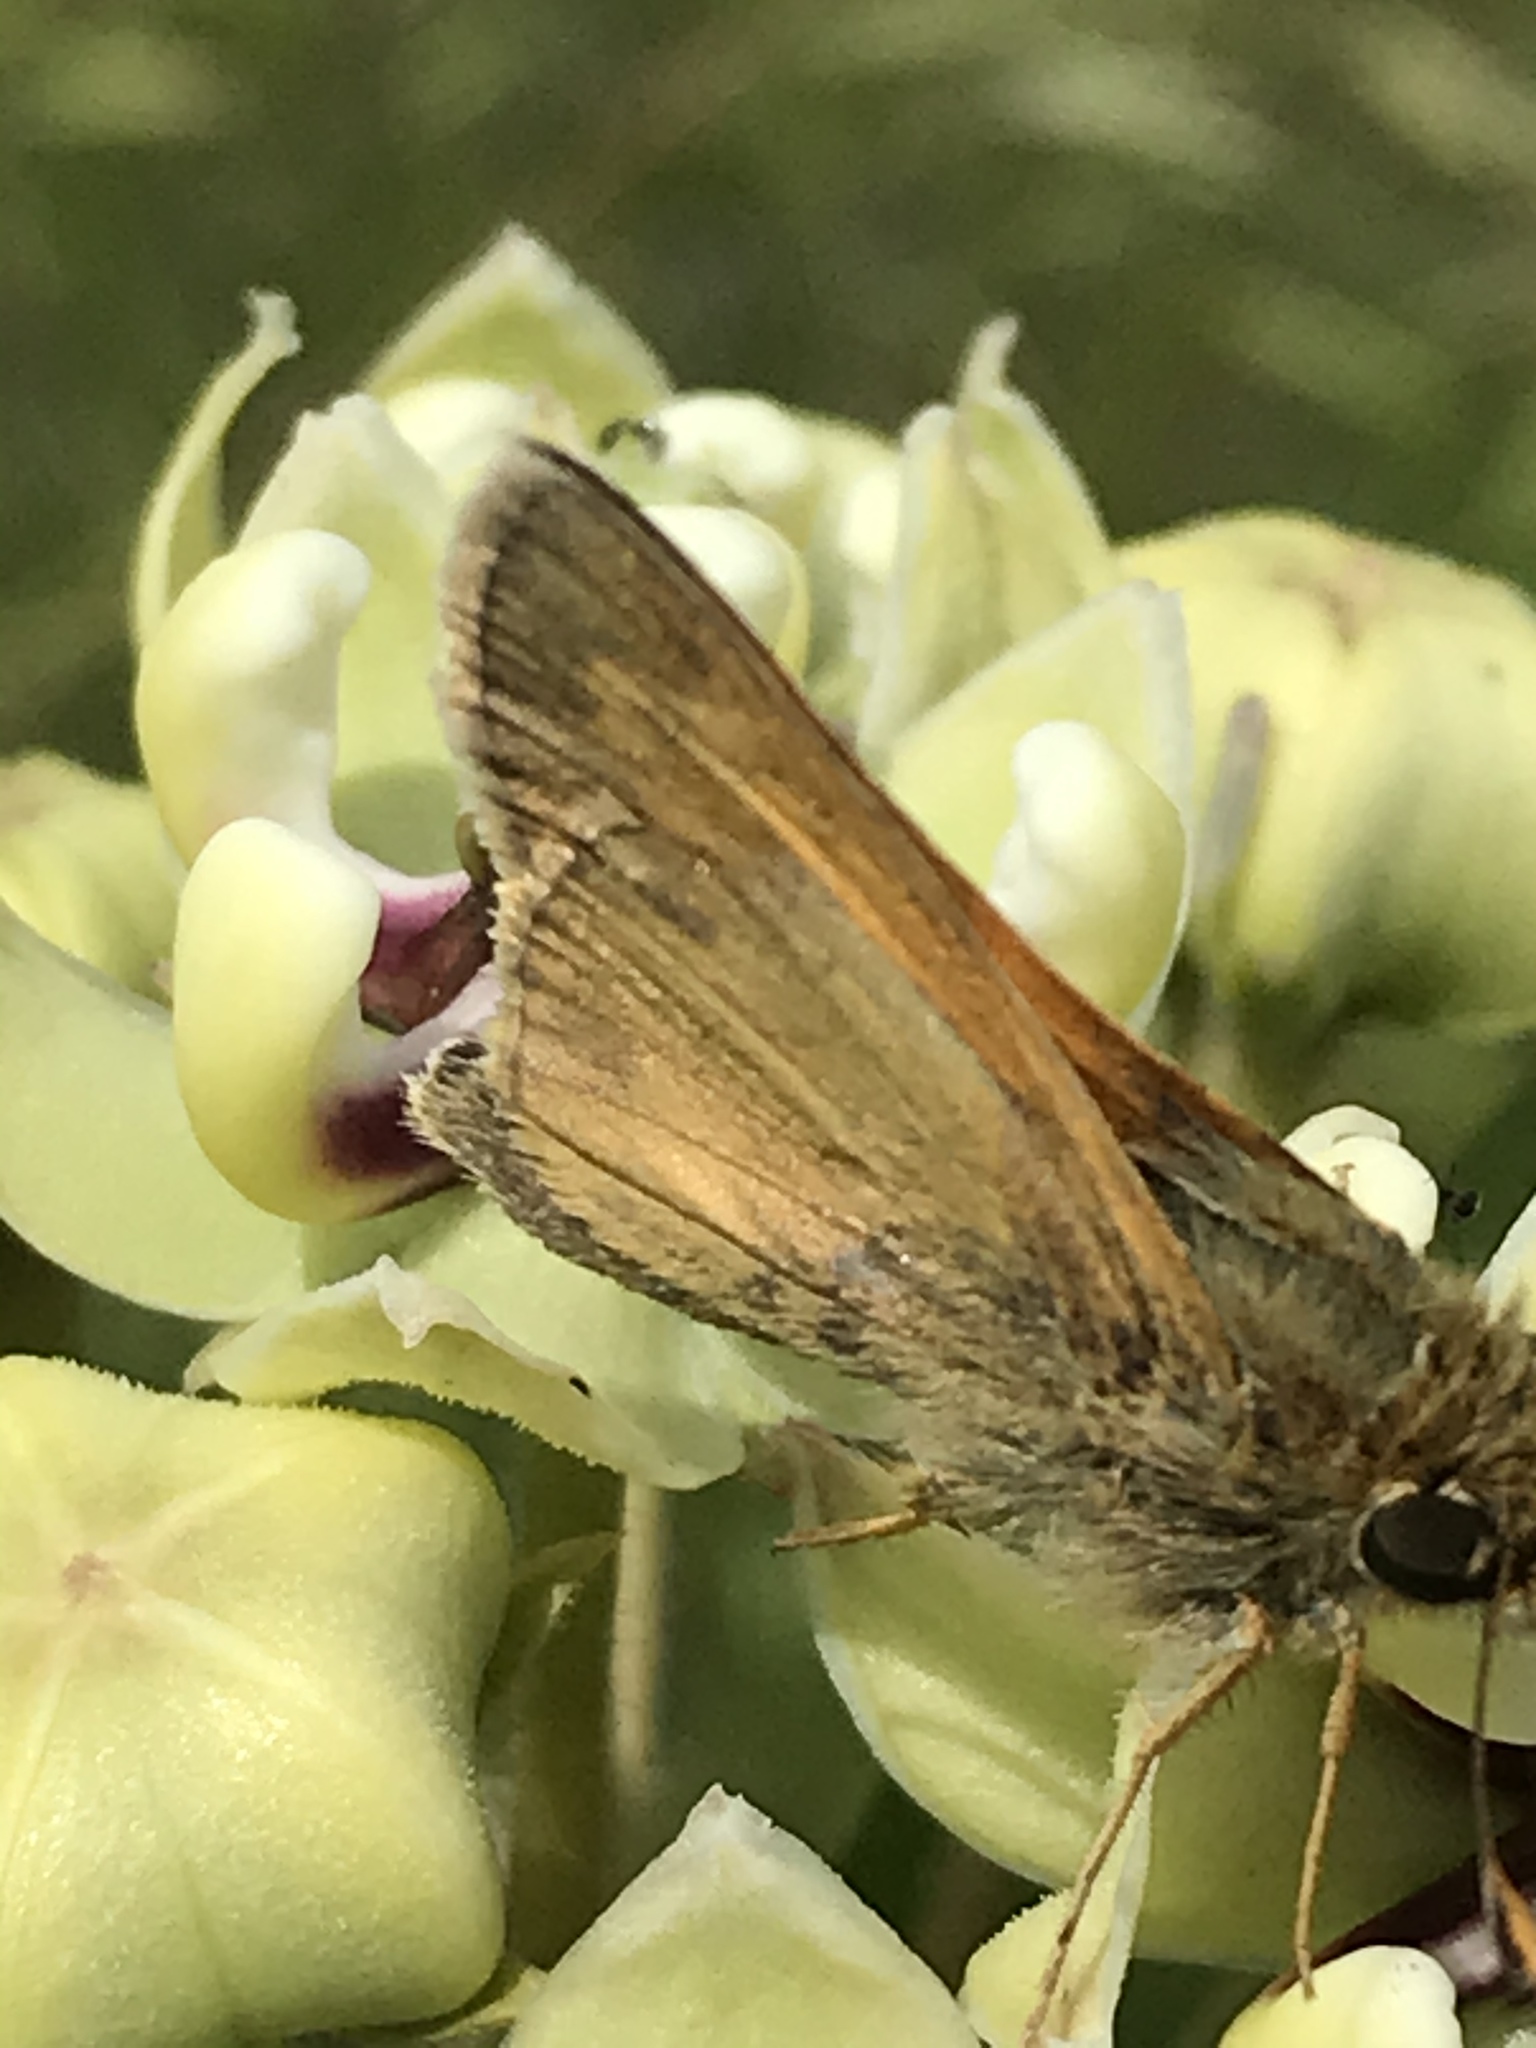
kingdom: Animalia
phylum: Arthropoda
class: Insecta
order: Lepidoptera
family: Hesperiidae
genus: Atalopedes
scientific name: Atalopedes
